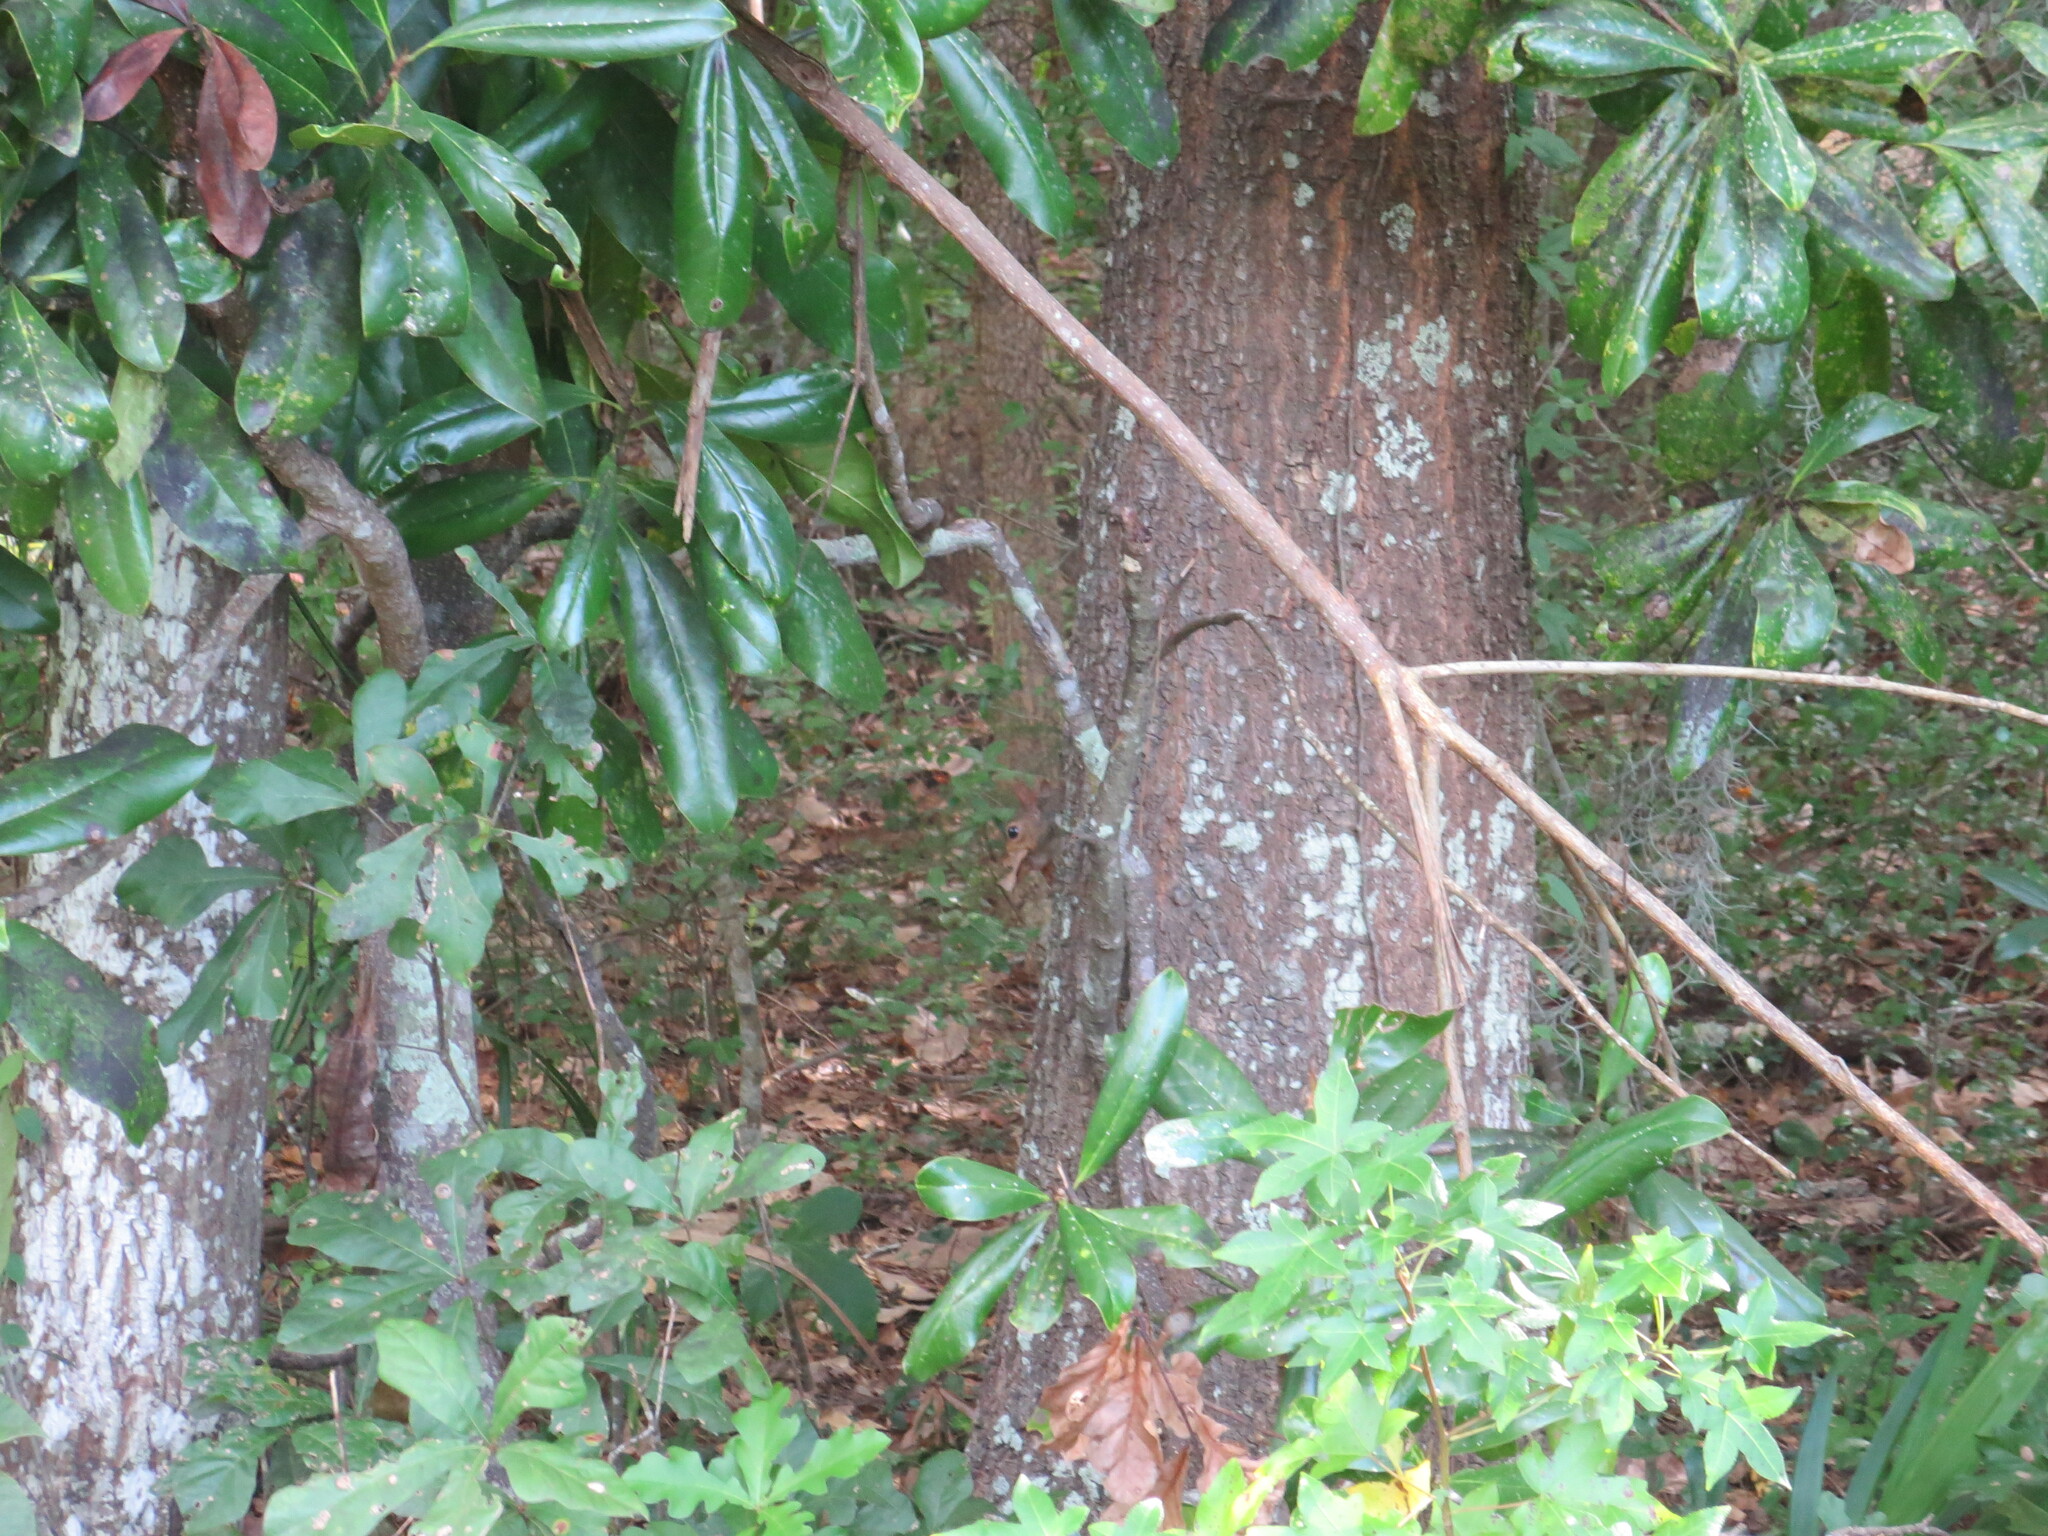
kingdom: Animalia
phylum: Chordata
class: Mammalia
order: Rodentia
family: Sciuridae
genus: Sciurus
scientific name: Sciurus carolinensis
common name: Eastern gray squirrel
